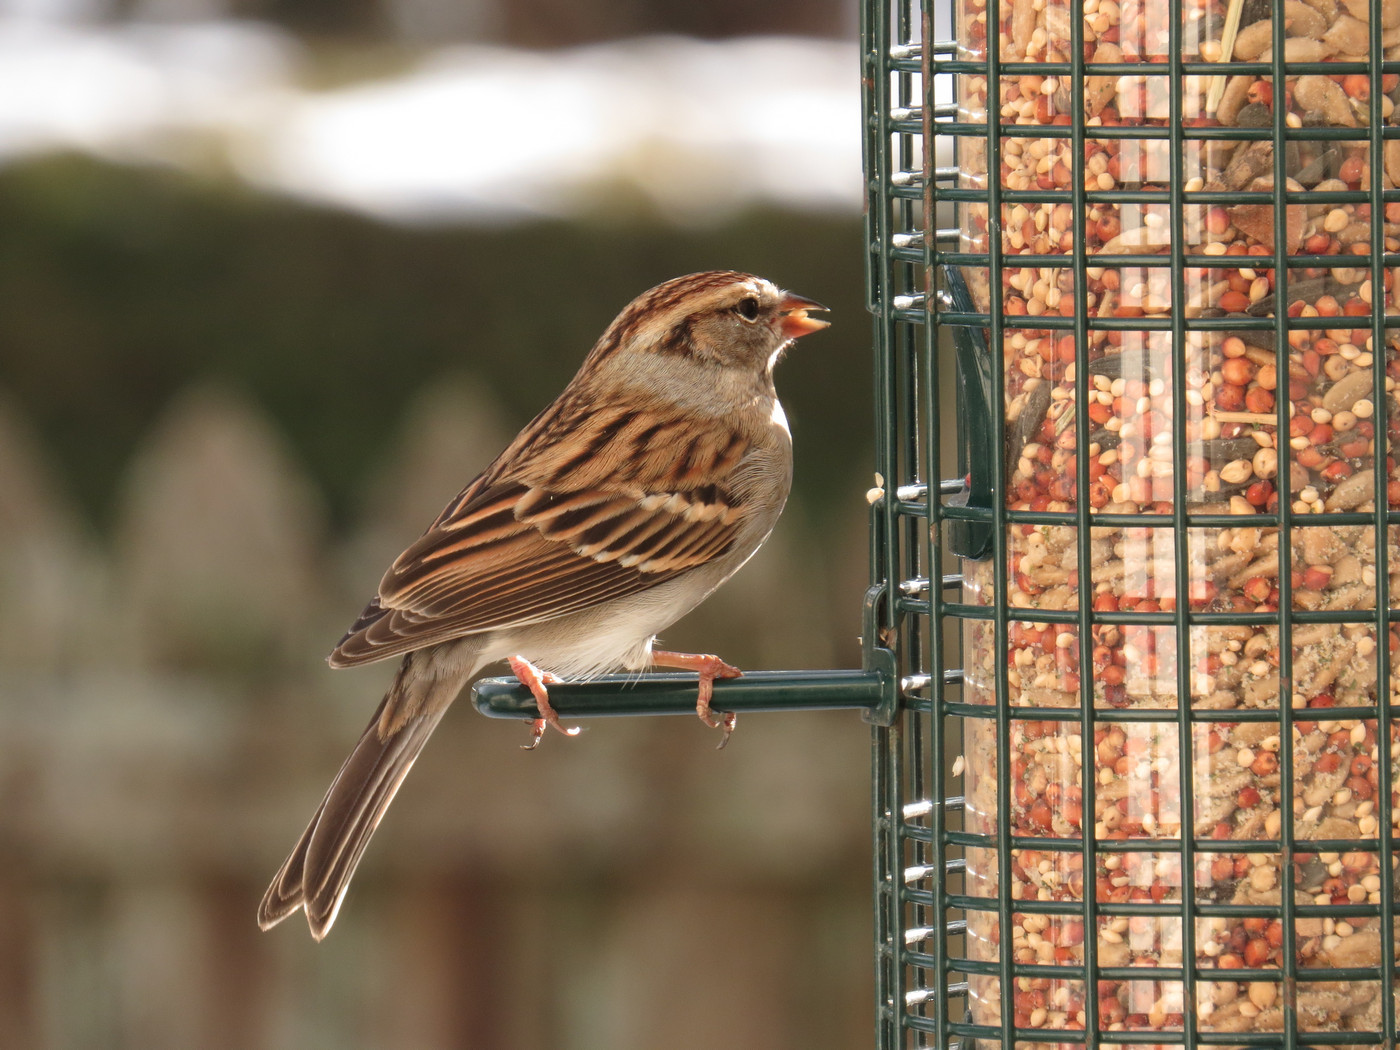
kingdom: Animalia
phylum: Chordata
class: Aves
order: Passeriformes
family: Passerellidae
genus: Spizella
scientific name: Spizella passerina
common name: Chipping sparrow
